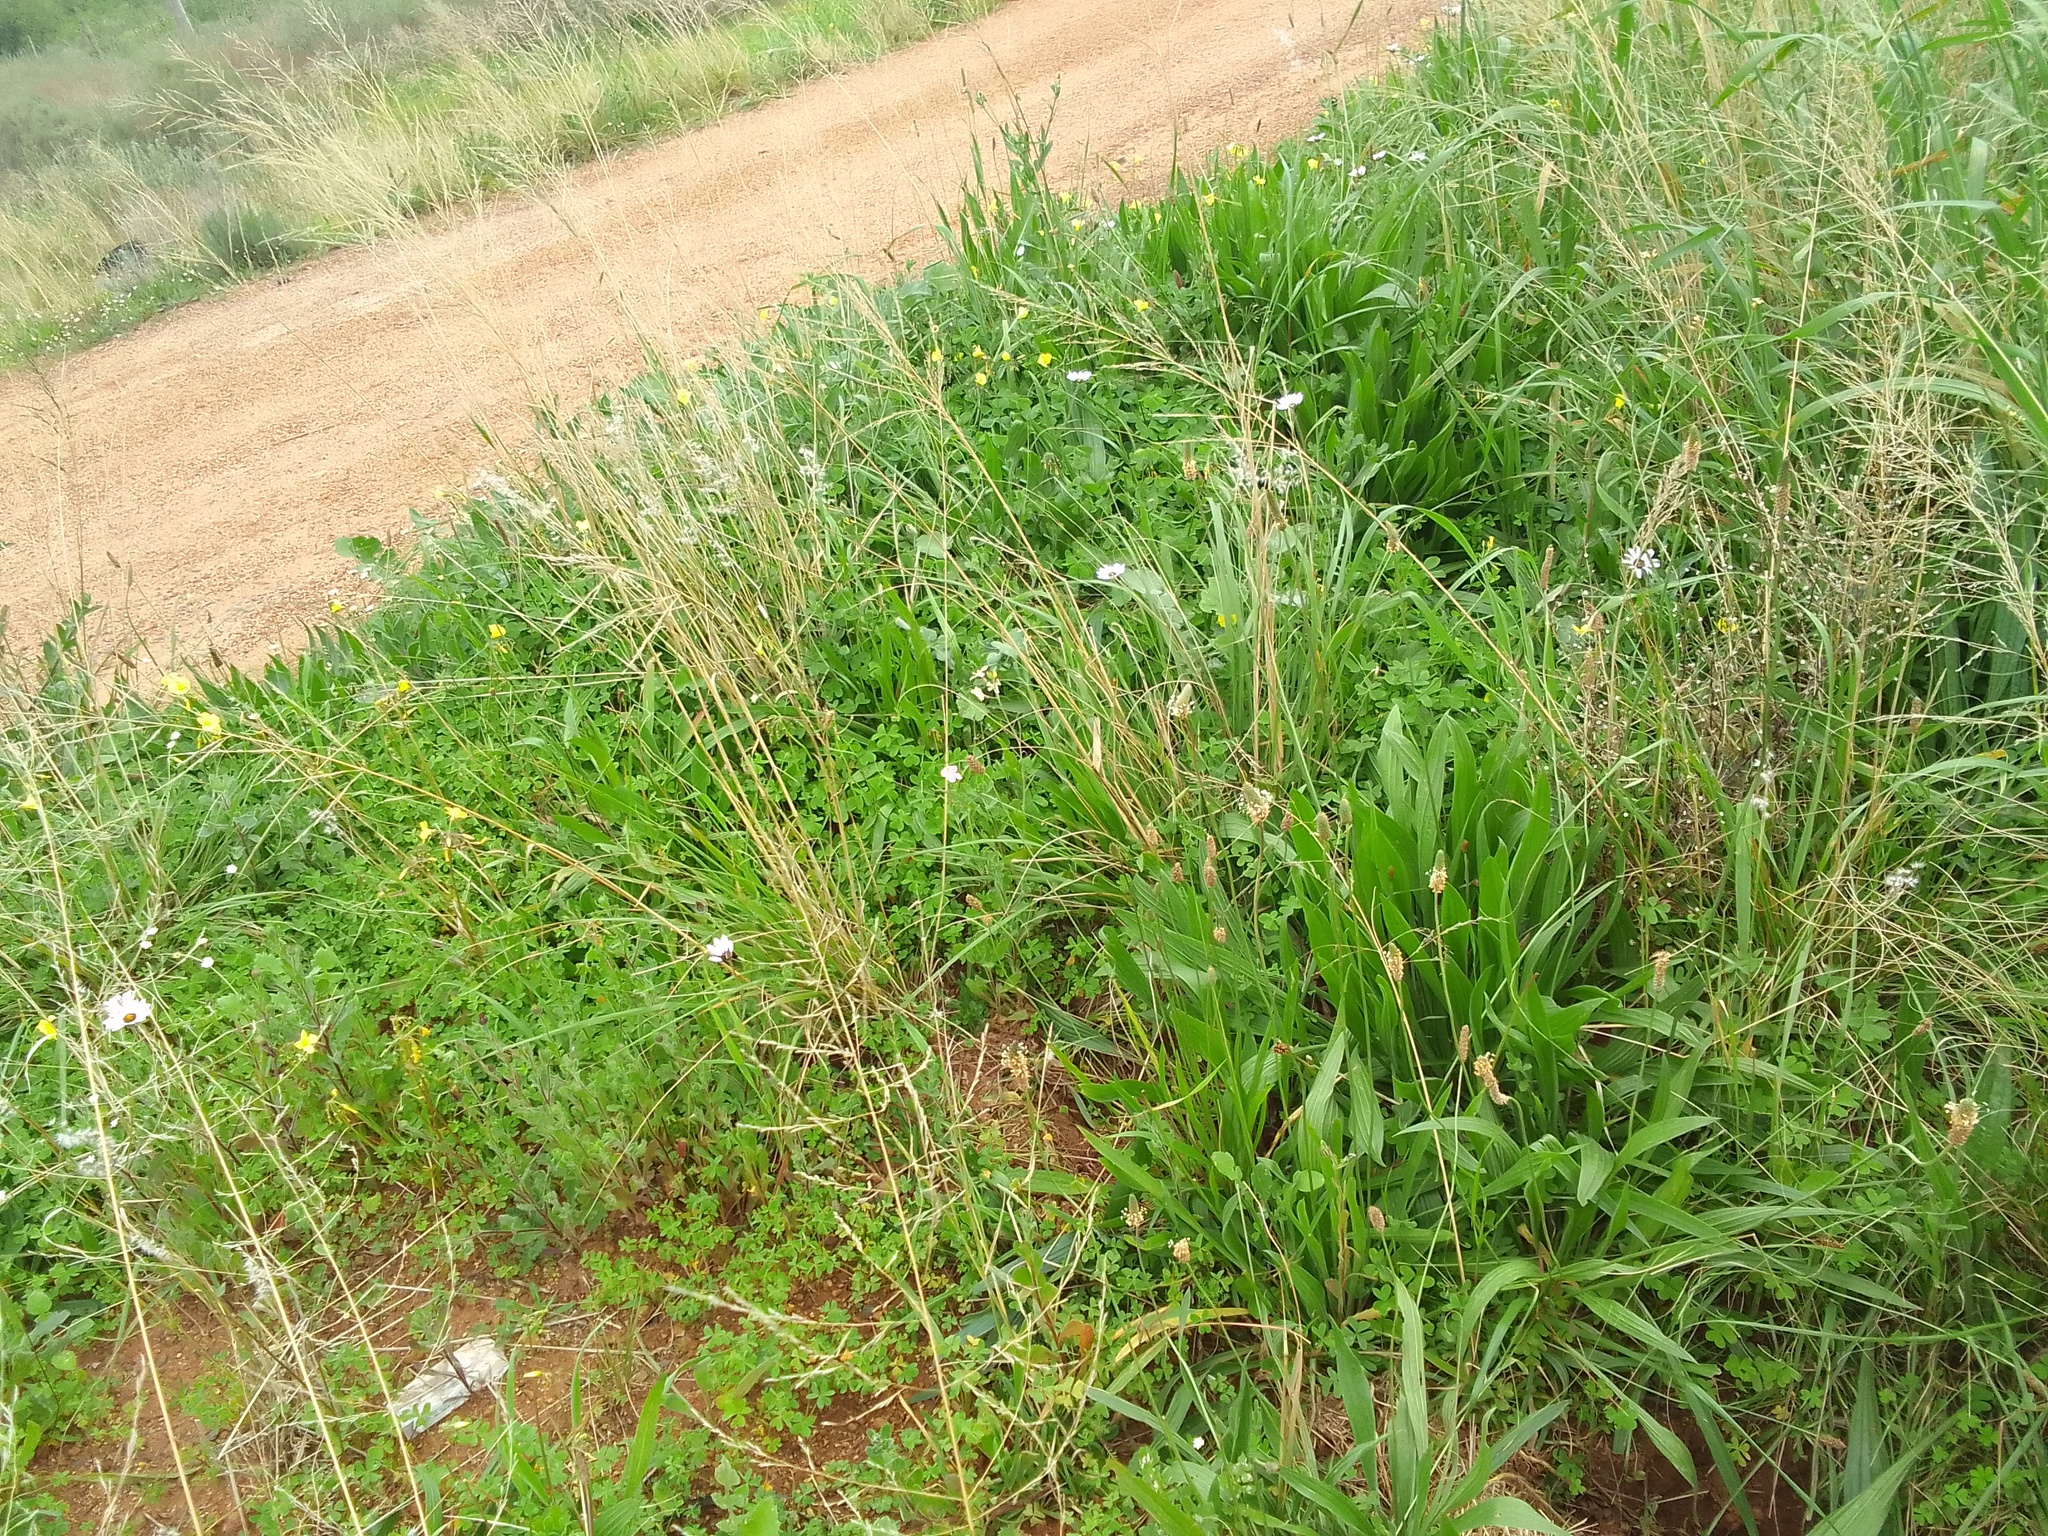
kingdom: Plantae
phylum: Tracheophyta
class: Magnoliopsida
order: Lamiales
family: Plantaginaceae
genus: Plantago
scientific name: Plantago lanceolata
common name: Ribwort plantain
